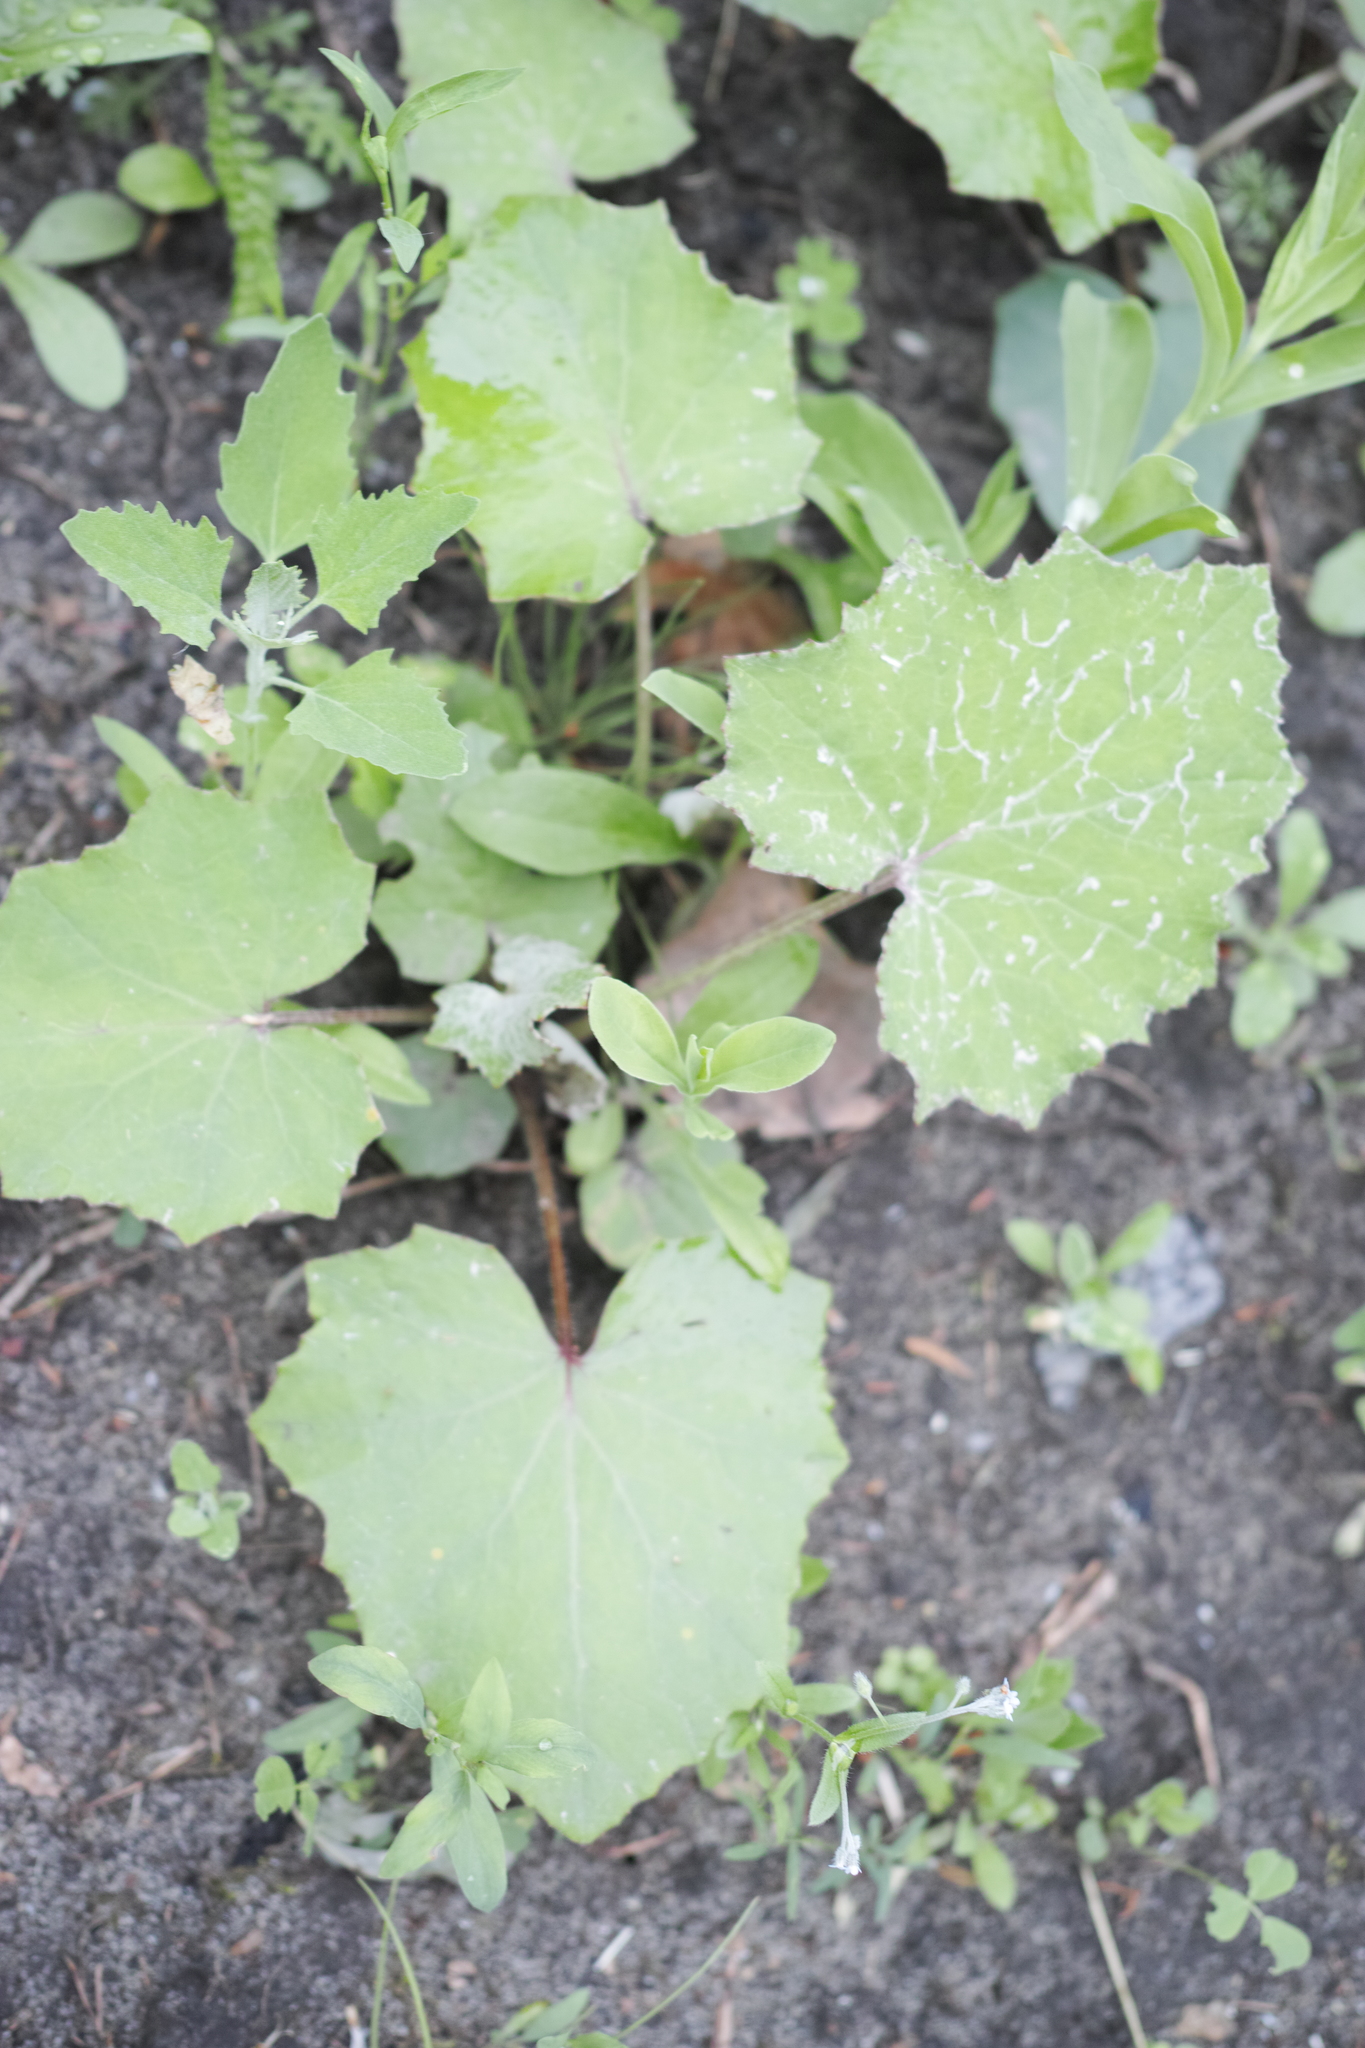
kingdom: Plantae
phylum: Tracheophyta
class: Magnoliopsida
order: Asterales
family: Asteraceae
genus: Tussilago
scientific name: Tussilago farfara
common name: Coltsfoot
